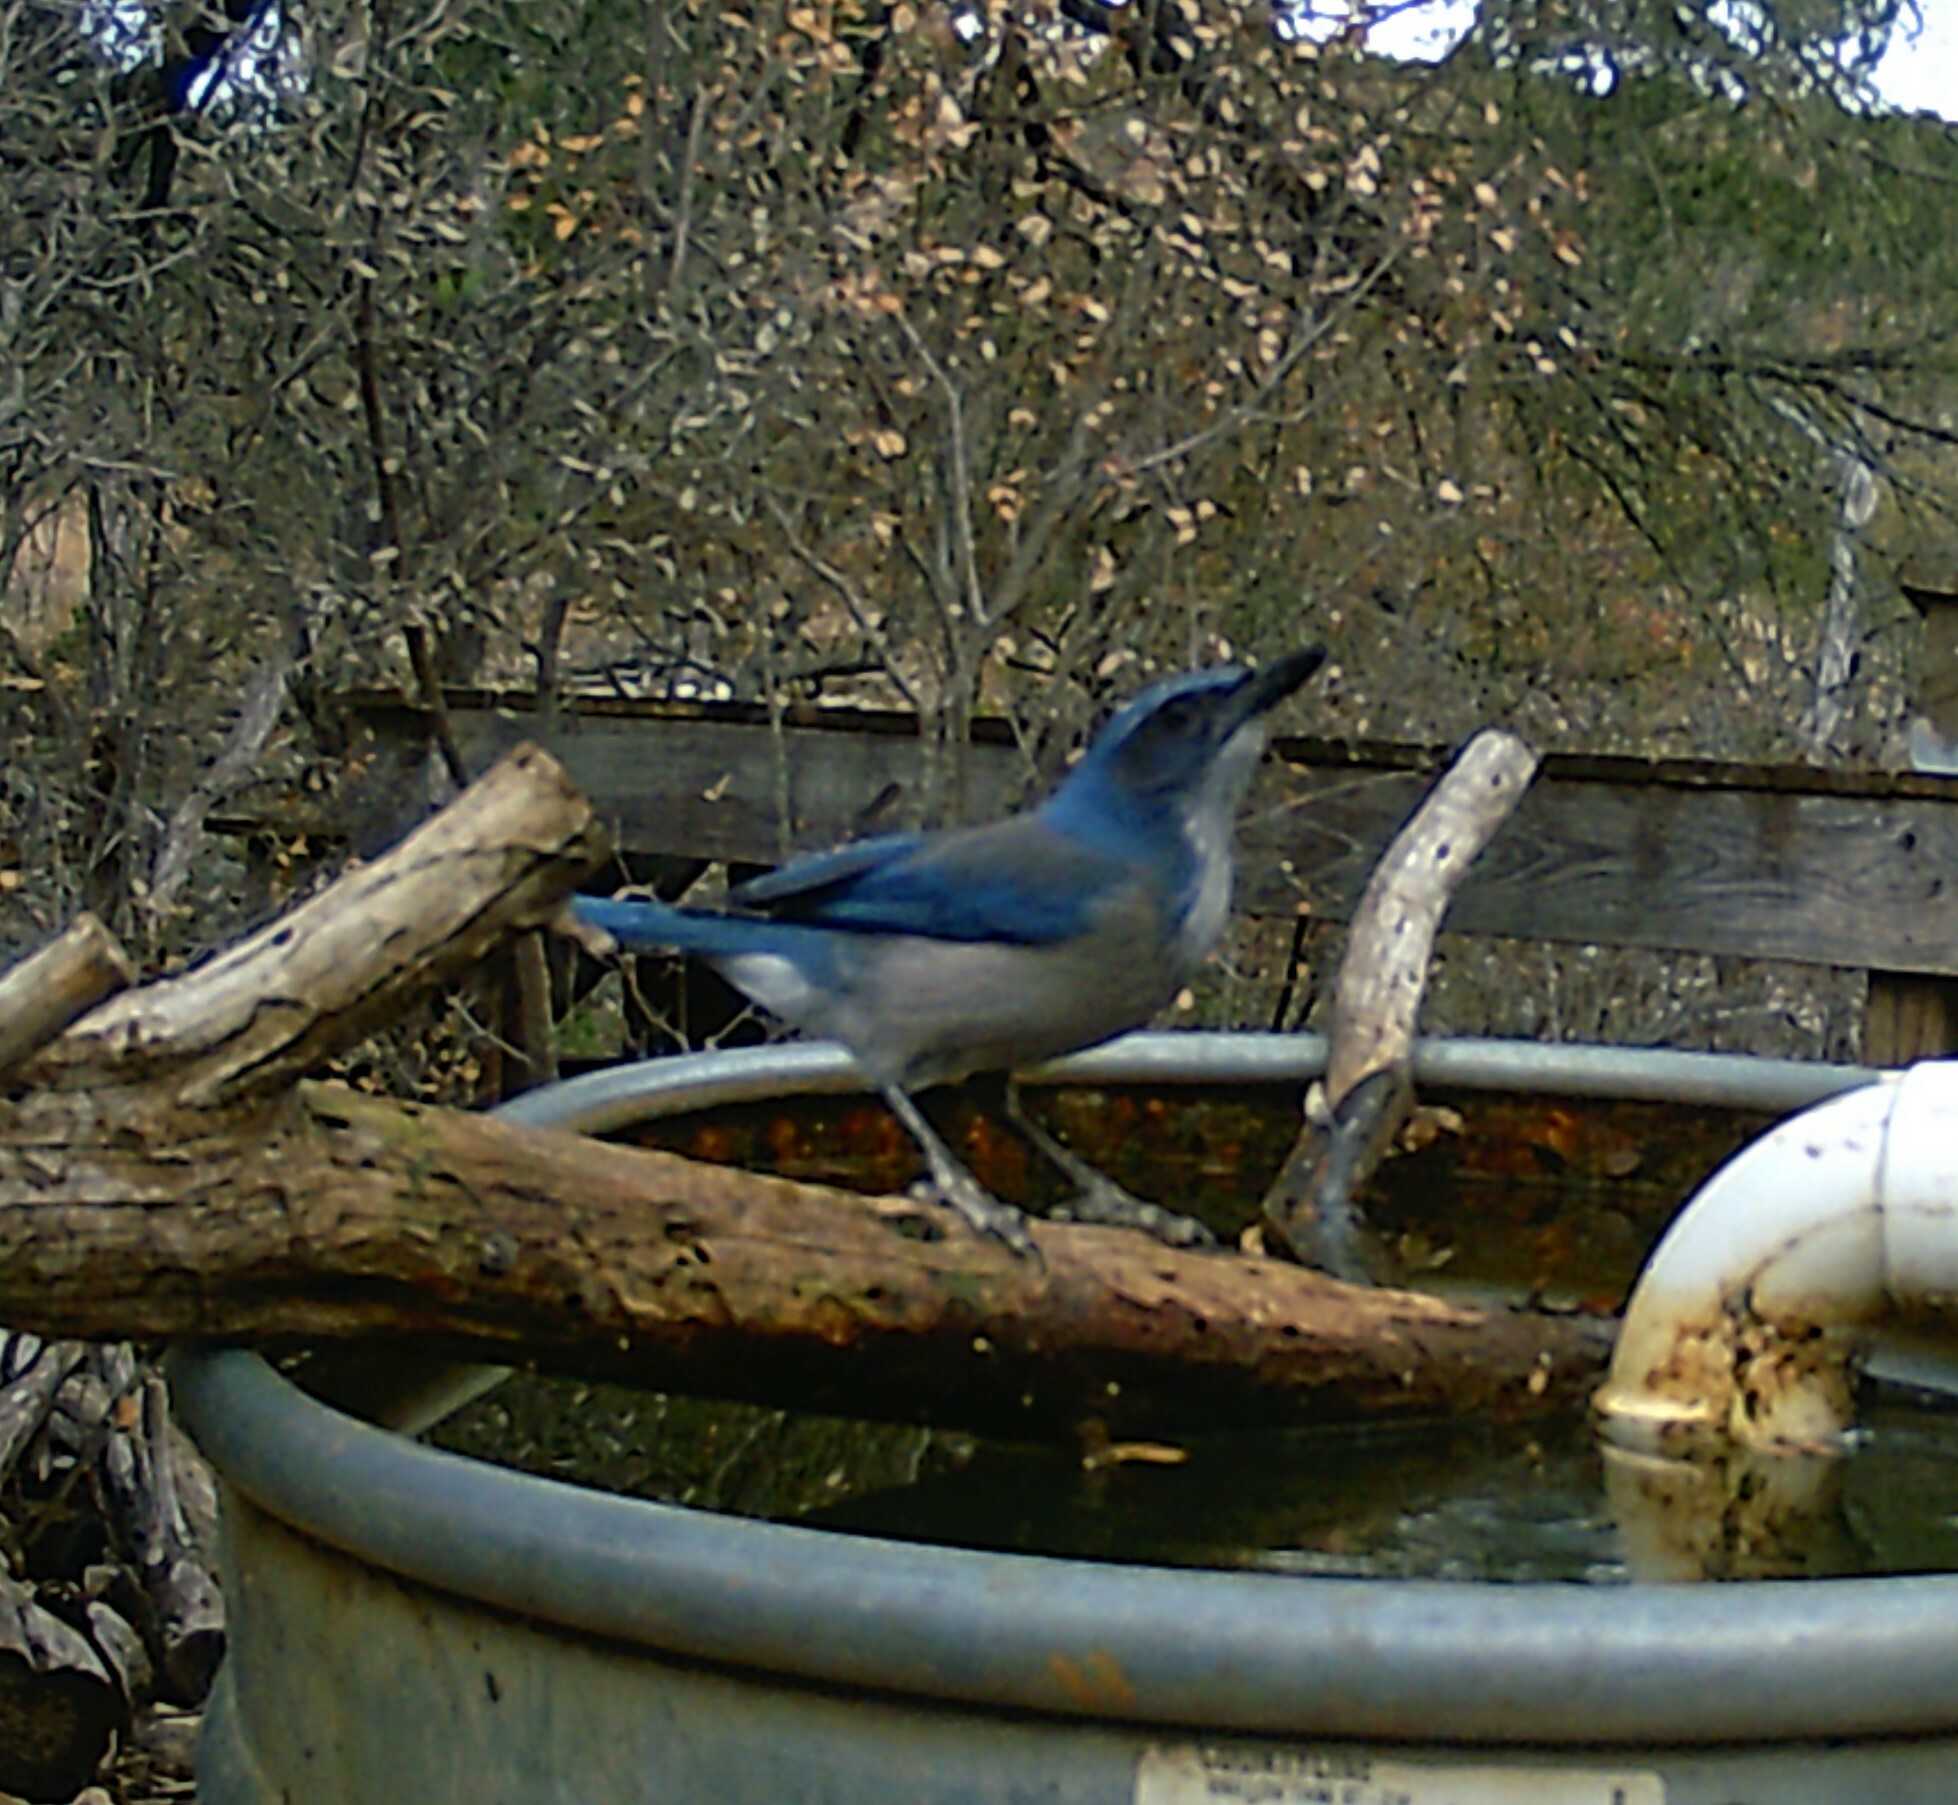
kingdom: Animalia
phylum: Chordata
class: Aves
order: Passeriformes
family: Corvidae
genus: Aphelocoma
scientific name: Aphelocoma woodhouseii
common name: Woodhouse's scrub-jay
